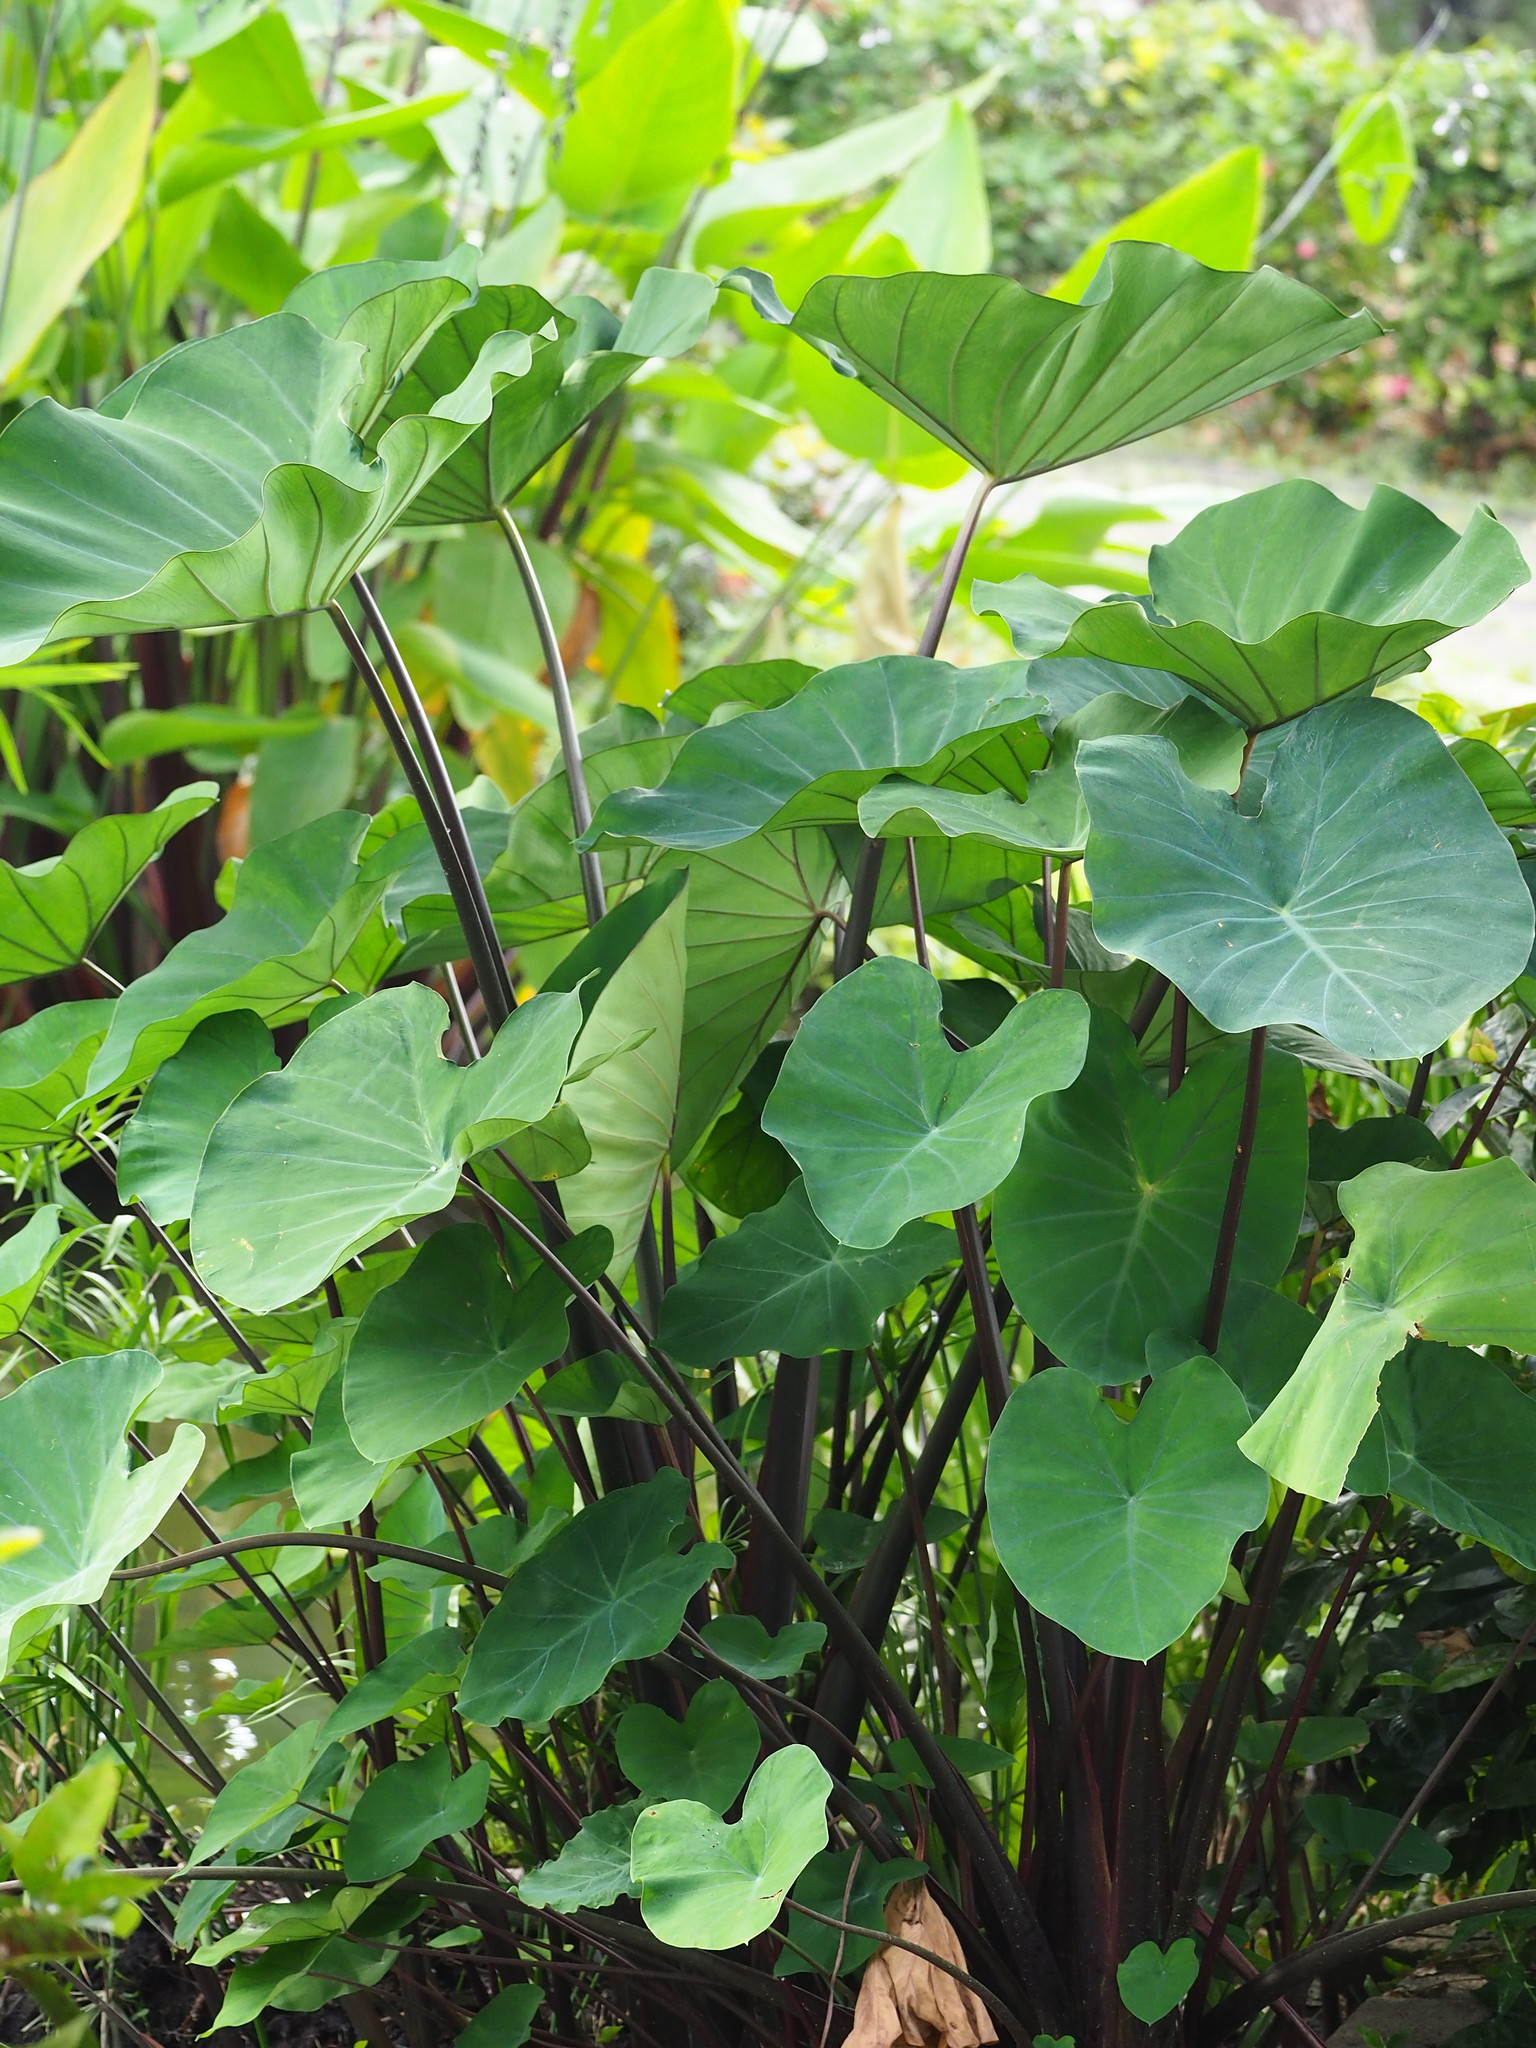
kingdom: Plantae
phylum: Tracheophyta
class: Liliopsida
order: Alismatales
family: Araceae
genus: Colocasia
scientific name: Colocasia esculenta
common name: Taro
